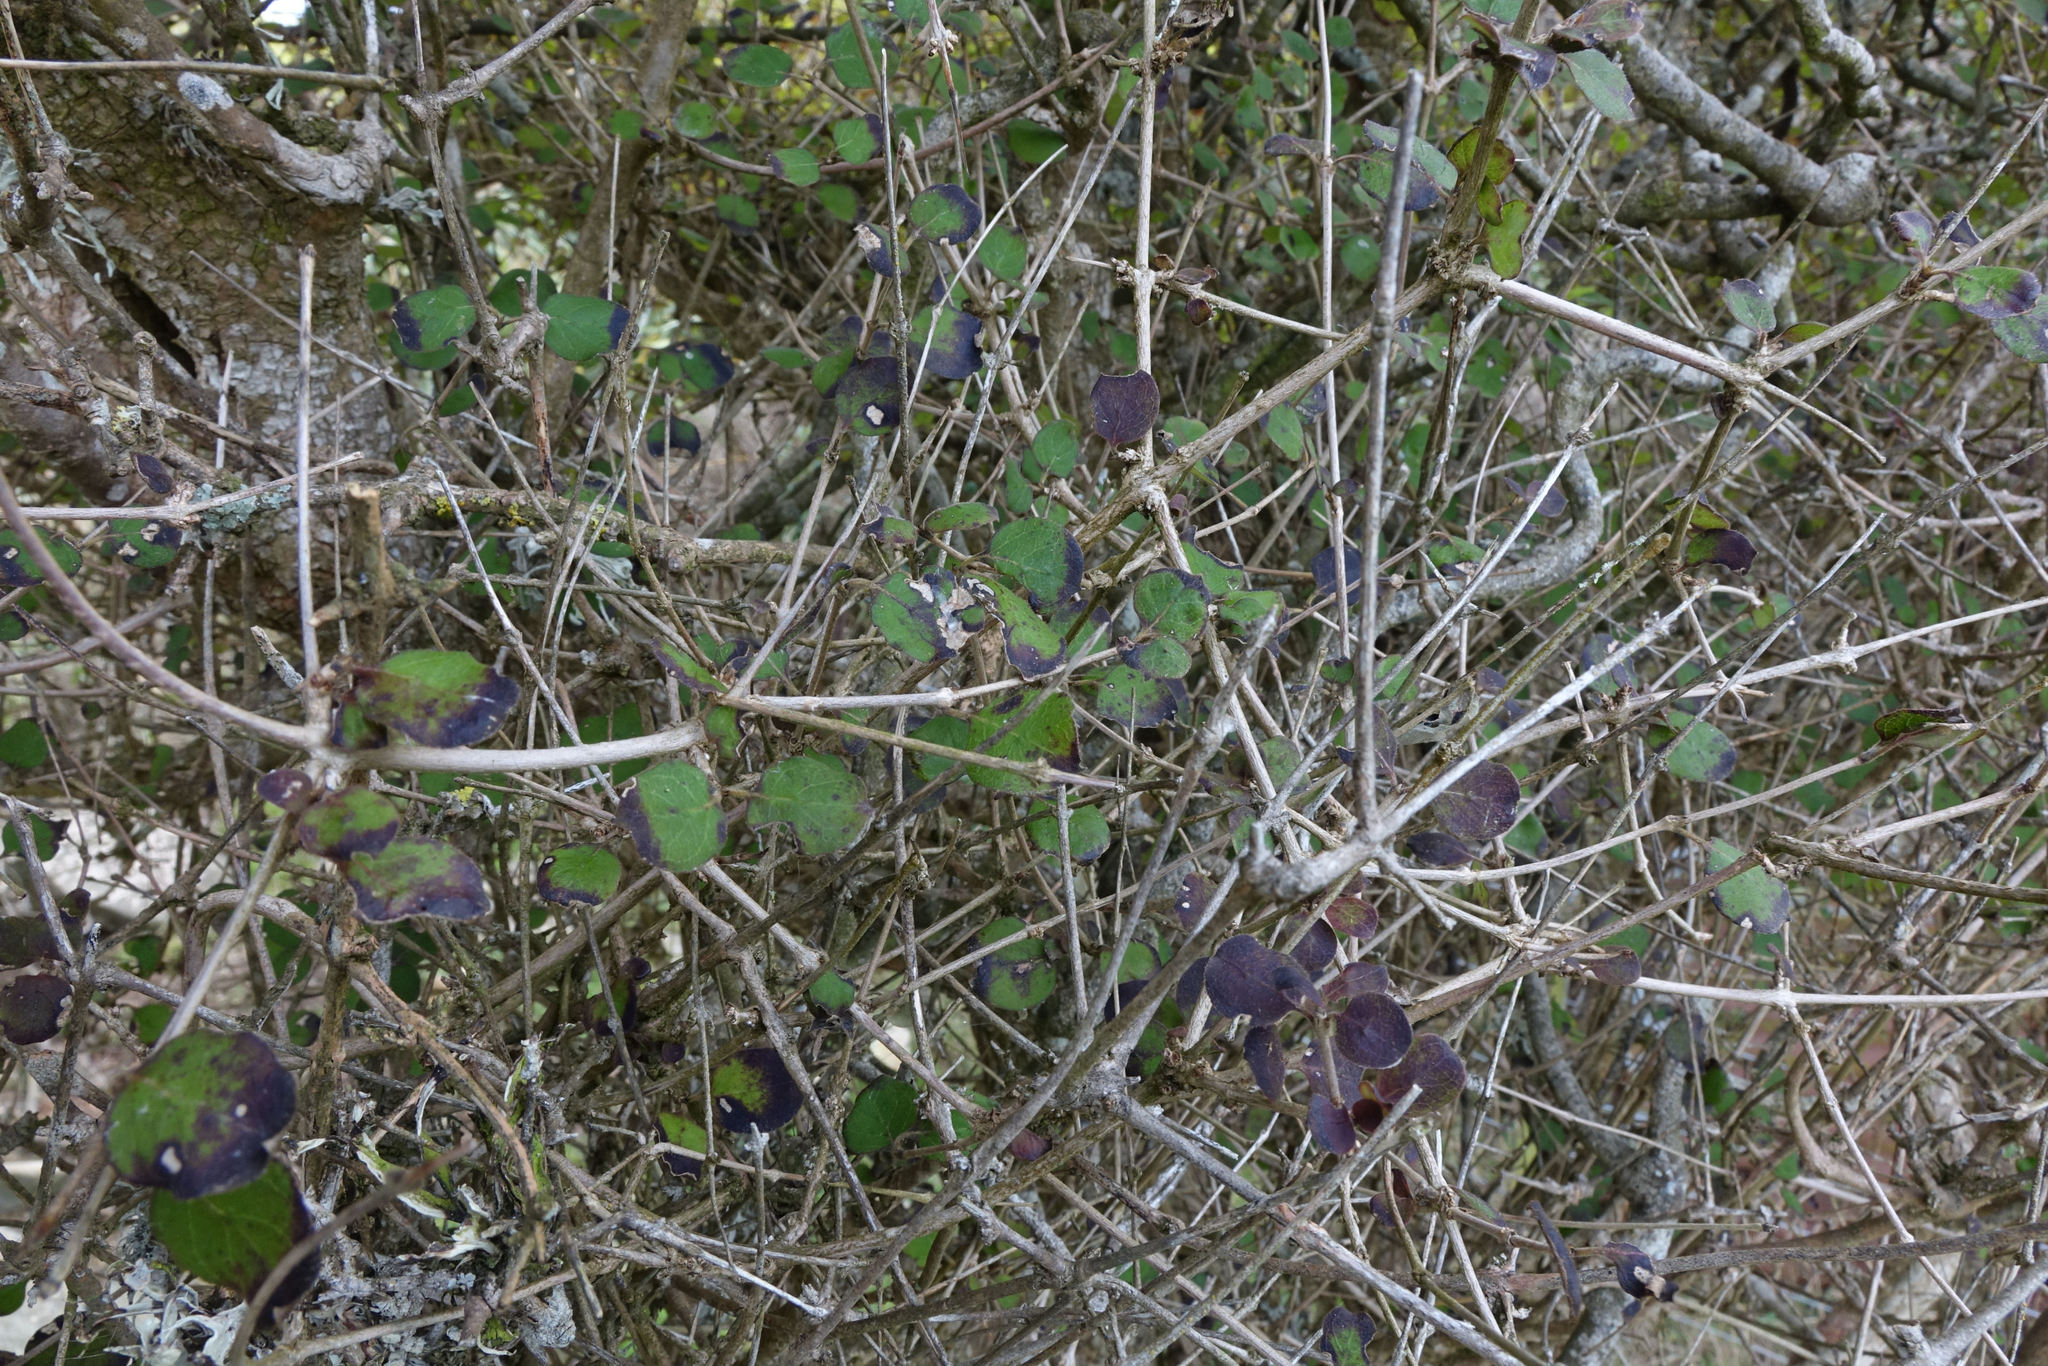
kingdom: Plantae
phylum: Tracheophyta
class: Magnoliopsida
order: Gentianales
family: Rubiaceae
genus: Coprosma
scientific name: Coprosma rotundifolia
